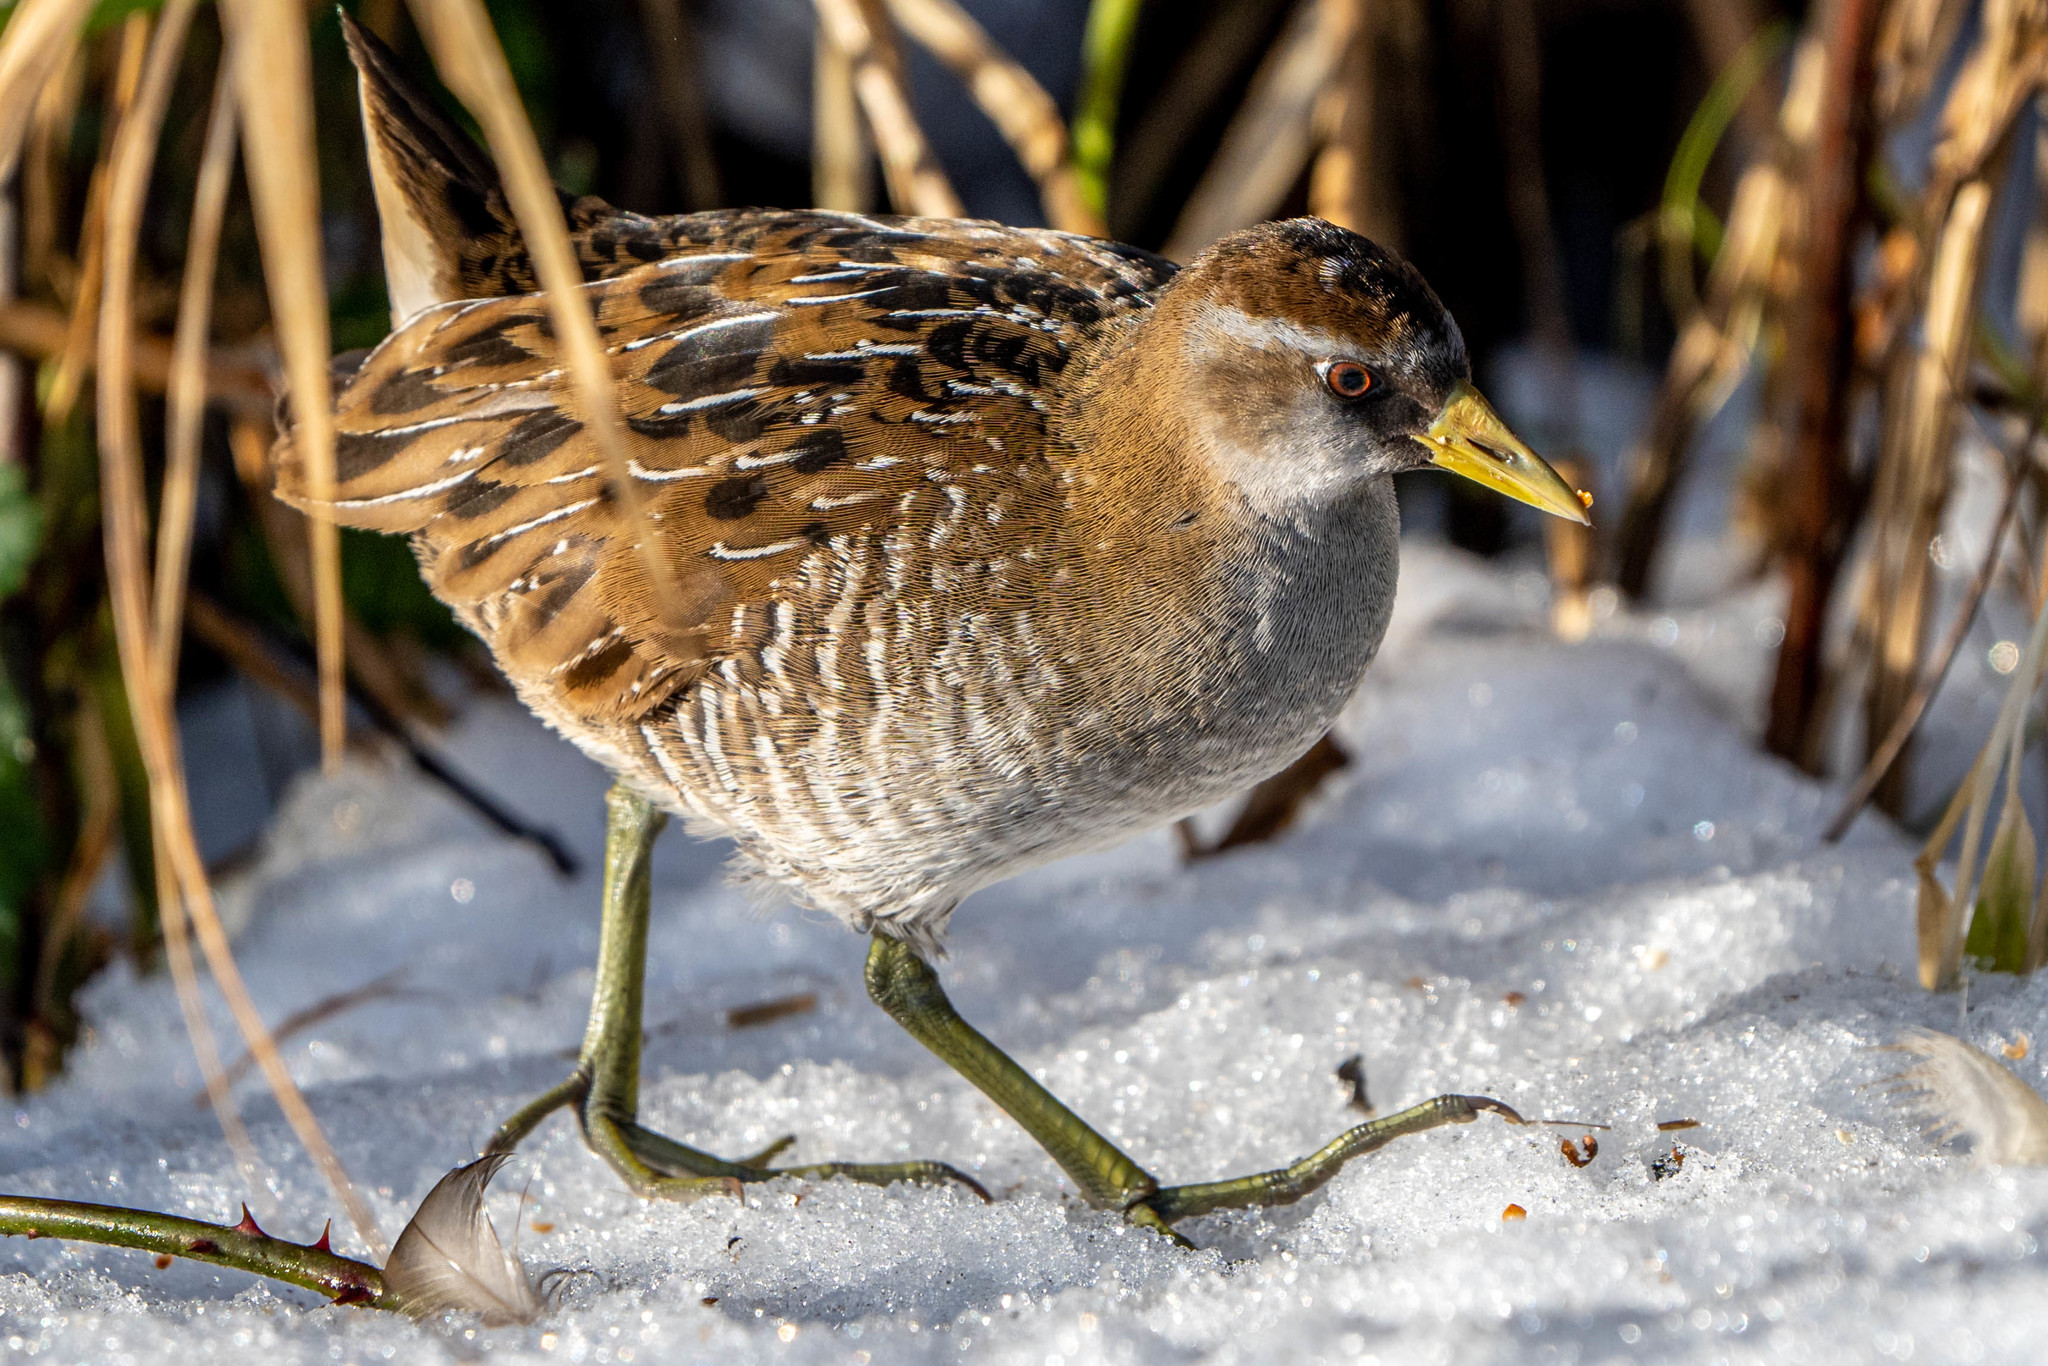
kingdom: Animalia
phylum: Chordata
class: Aves
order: Gruiformes
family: Rallidae
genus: Porzana
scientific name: Porzana carolina
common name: Sora
